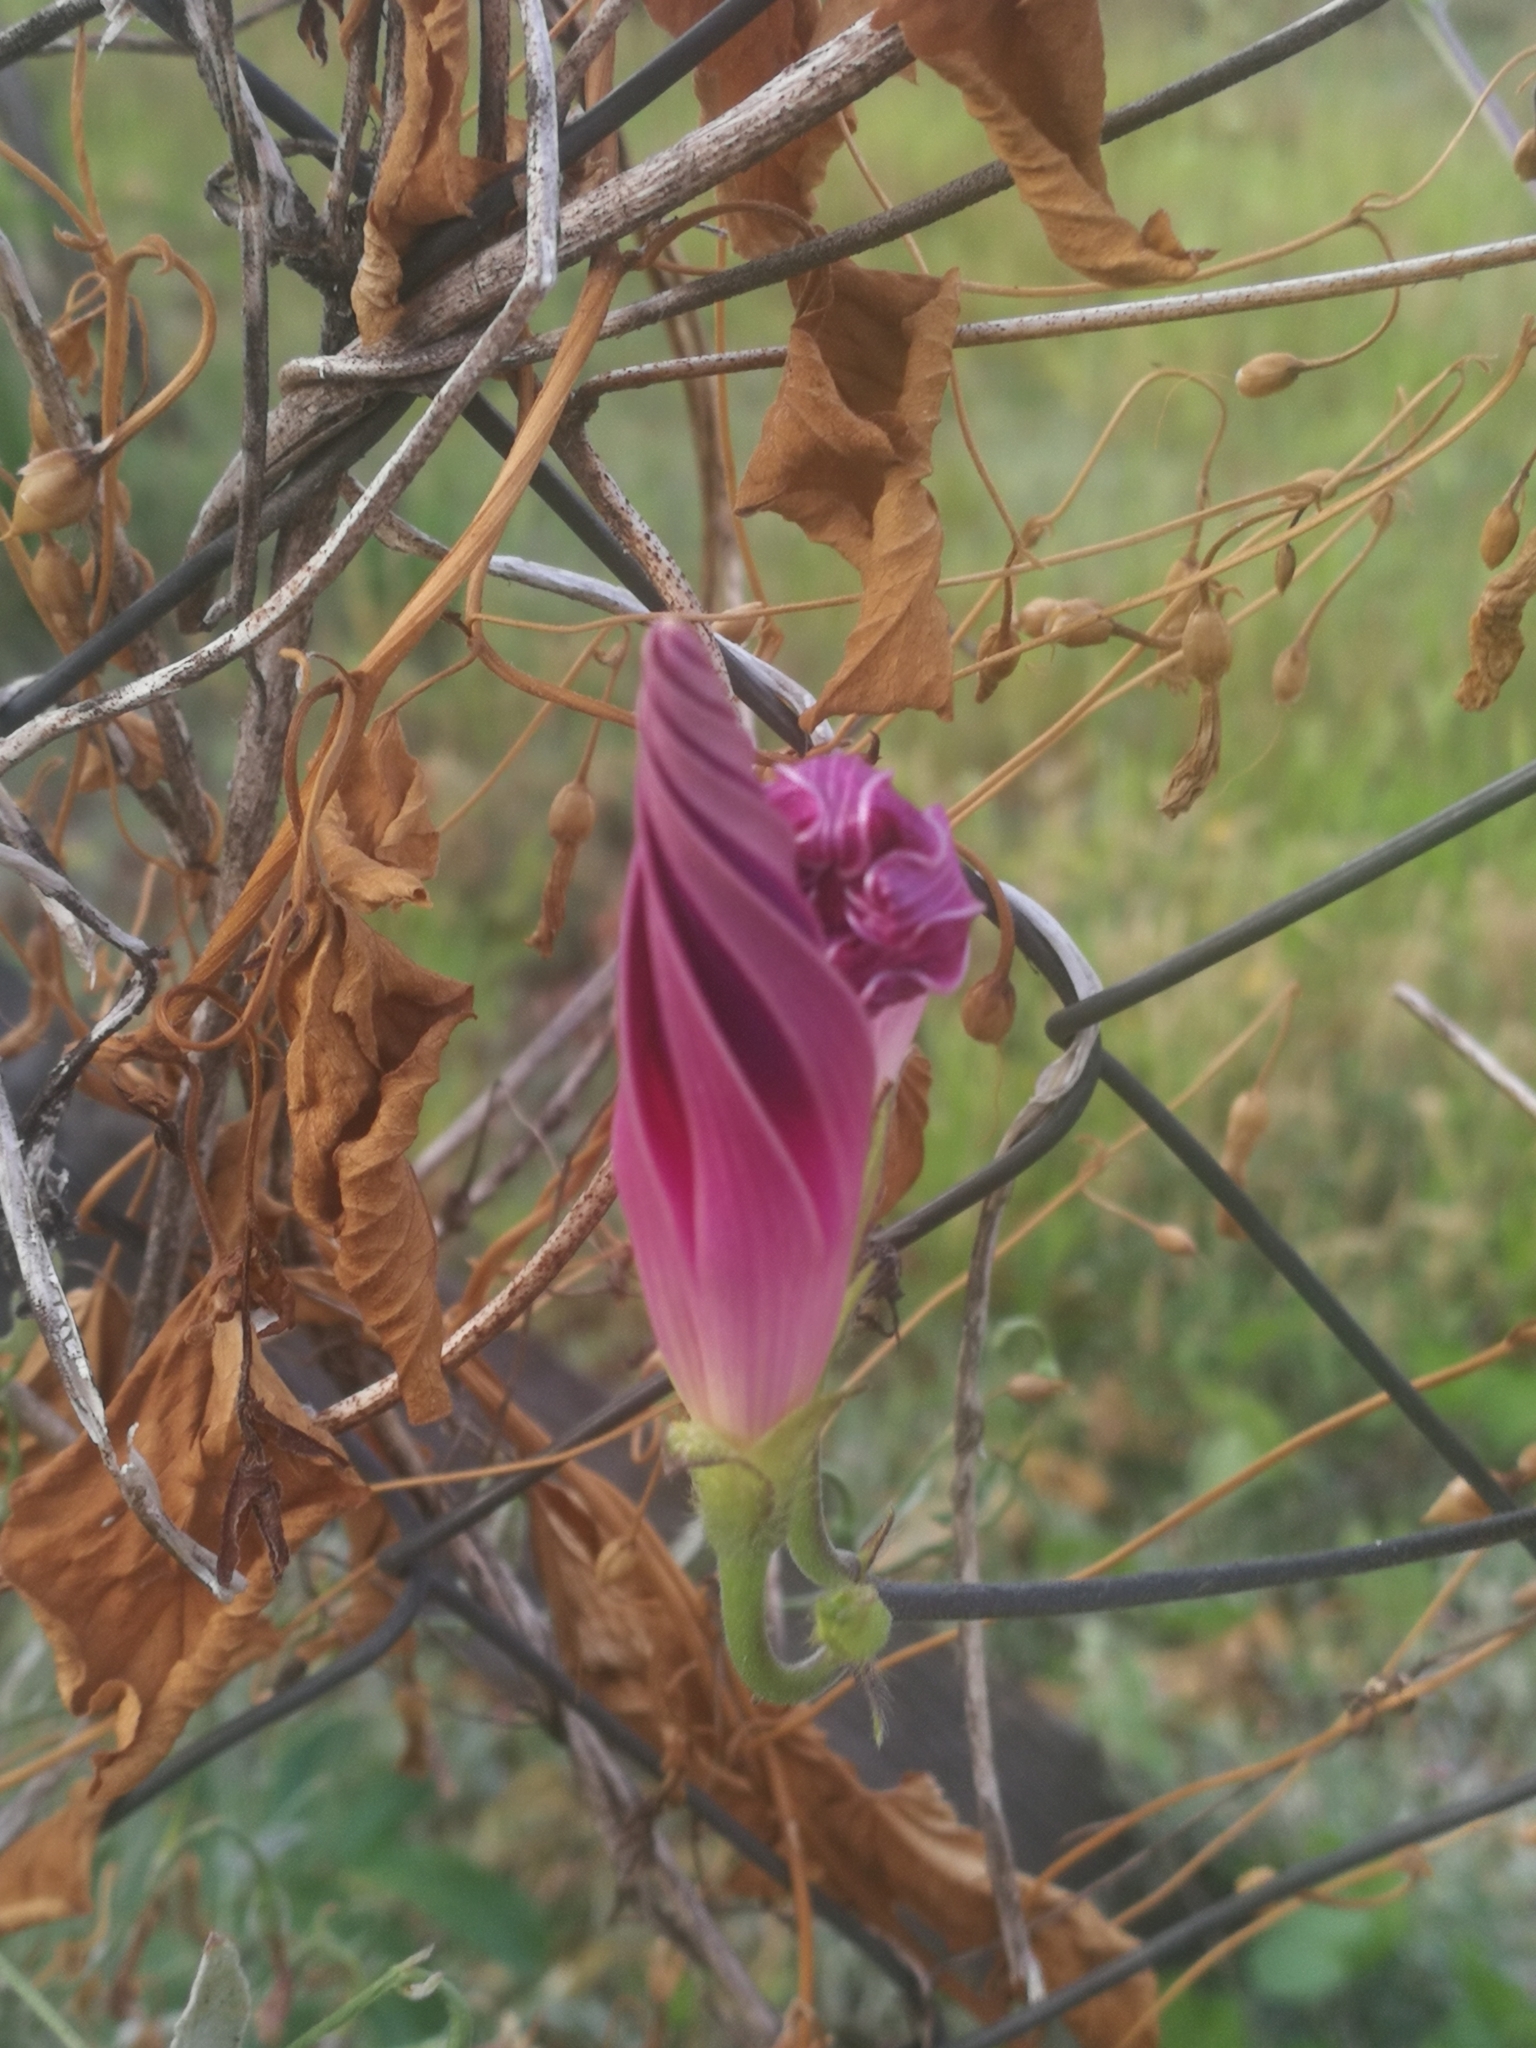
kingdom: Plantae
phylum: Tracheophyta
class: Magnoliopsida
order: Solanales
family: Convolvulaceae
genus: Ipomoea
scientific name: Ipomoea purpurea
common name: Common morning-glory
